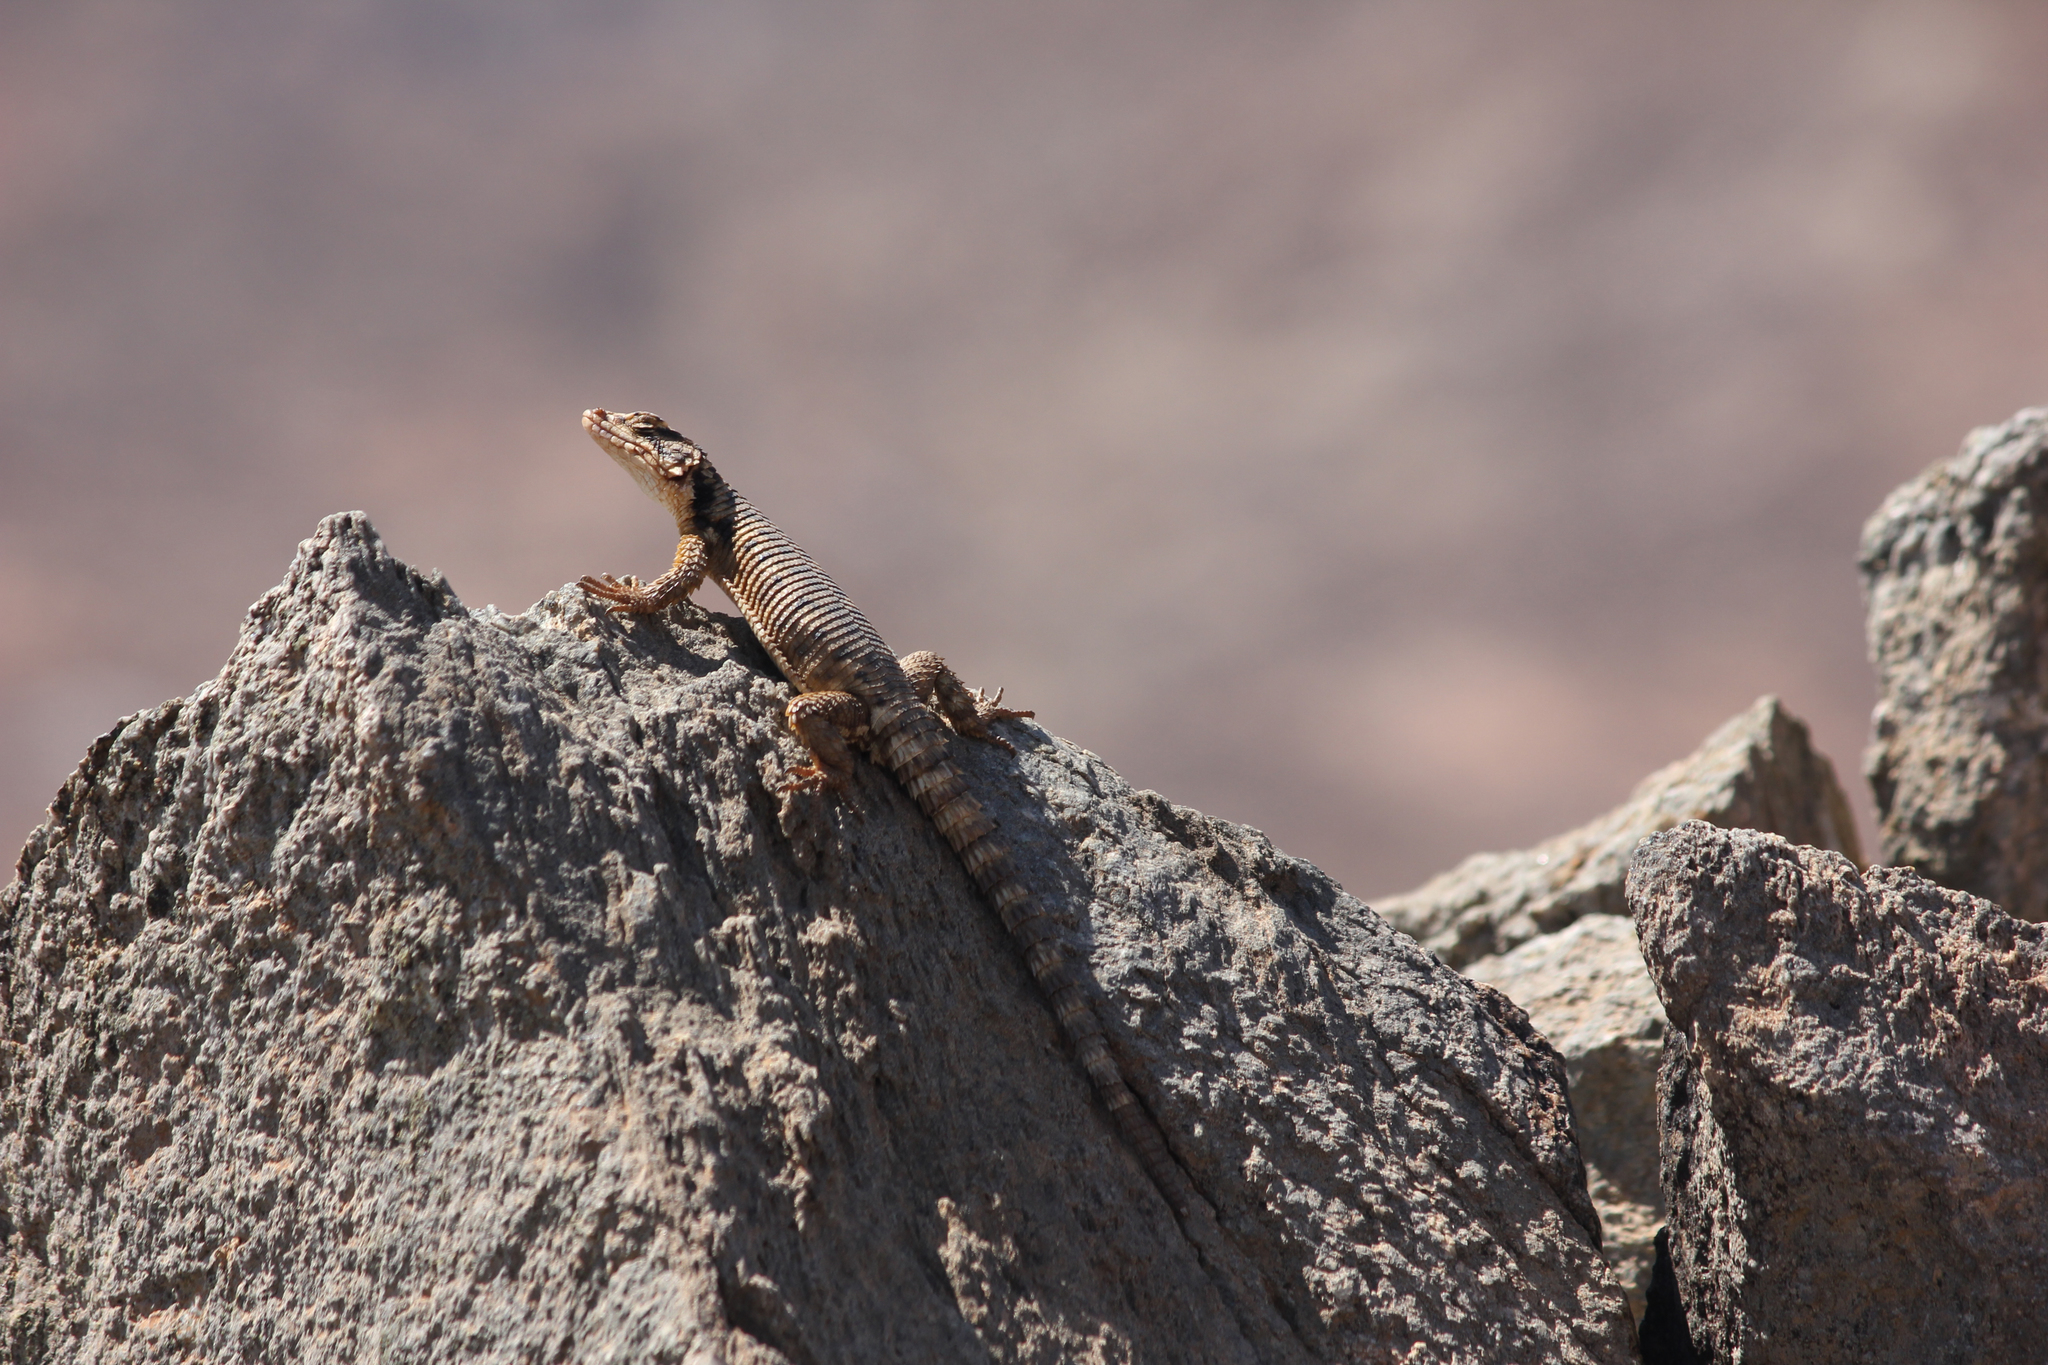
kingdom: Animalia
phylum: Chordata
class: Squamata
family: Cordylidae
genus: Karusasaurus
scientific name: Karusasaurus polyzonus
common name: Karoo girdled lizard
